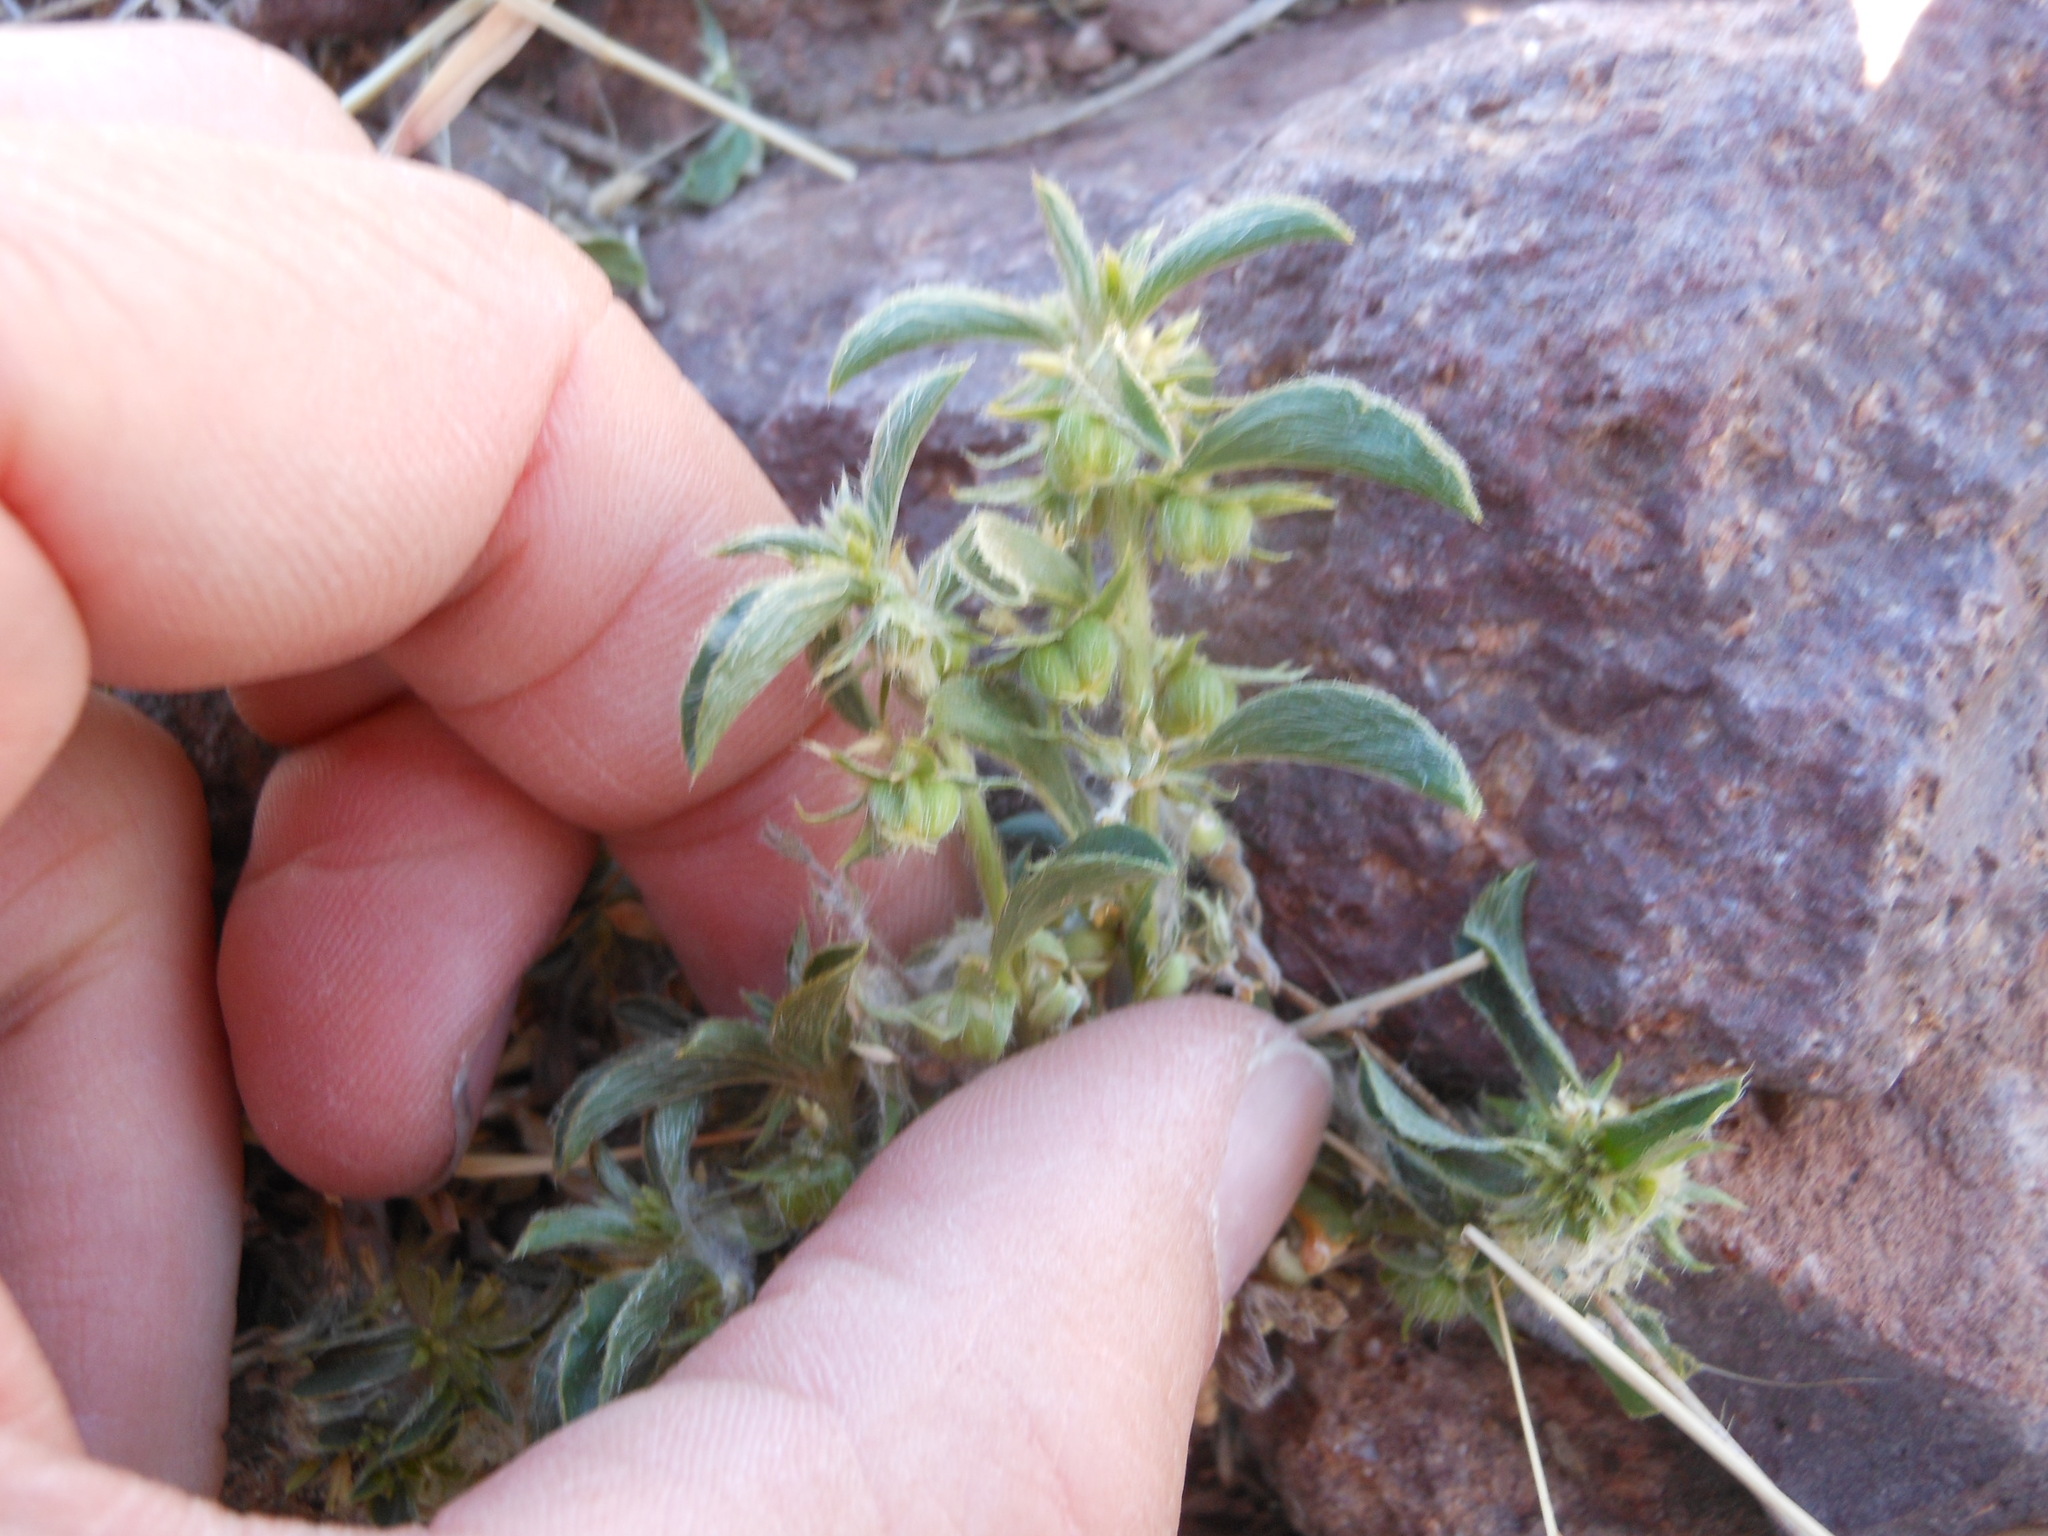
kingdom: Plantae
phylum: Tracheophyta
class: Magnoliopsida
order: Malpighiales
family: Euphorbiaceae
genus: Ditaxis
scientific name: Ditaxis serrata
